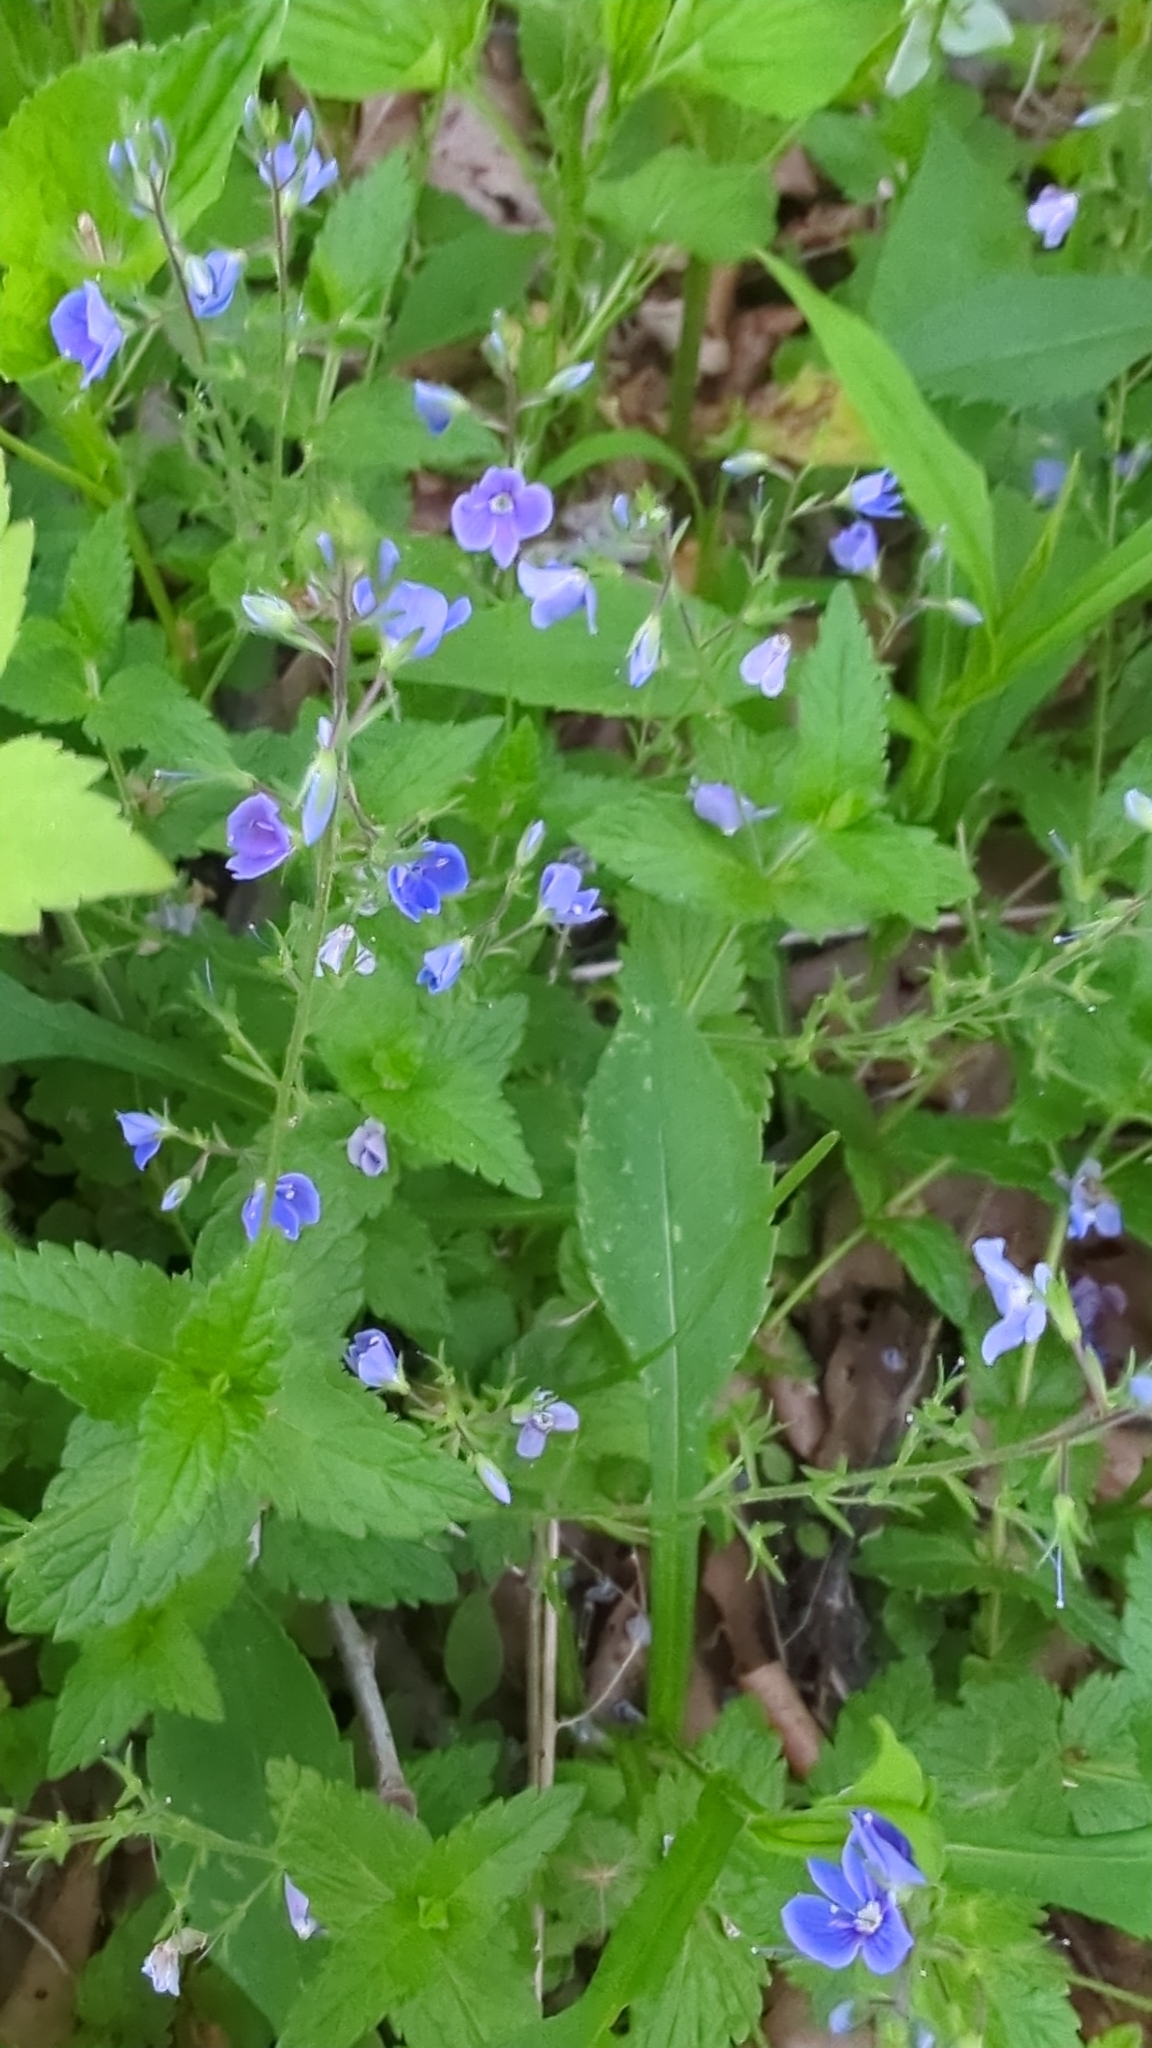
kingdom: Plantae
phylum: Tracheophyta
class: Magnoliopsida
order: Lamiales
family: Plantaginaceae
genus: Veronica
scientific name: Veronica chamaedrys
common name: Germander speedwell
